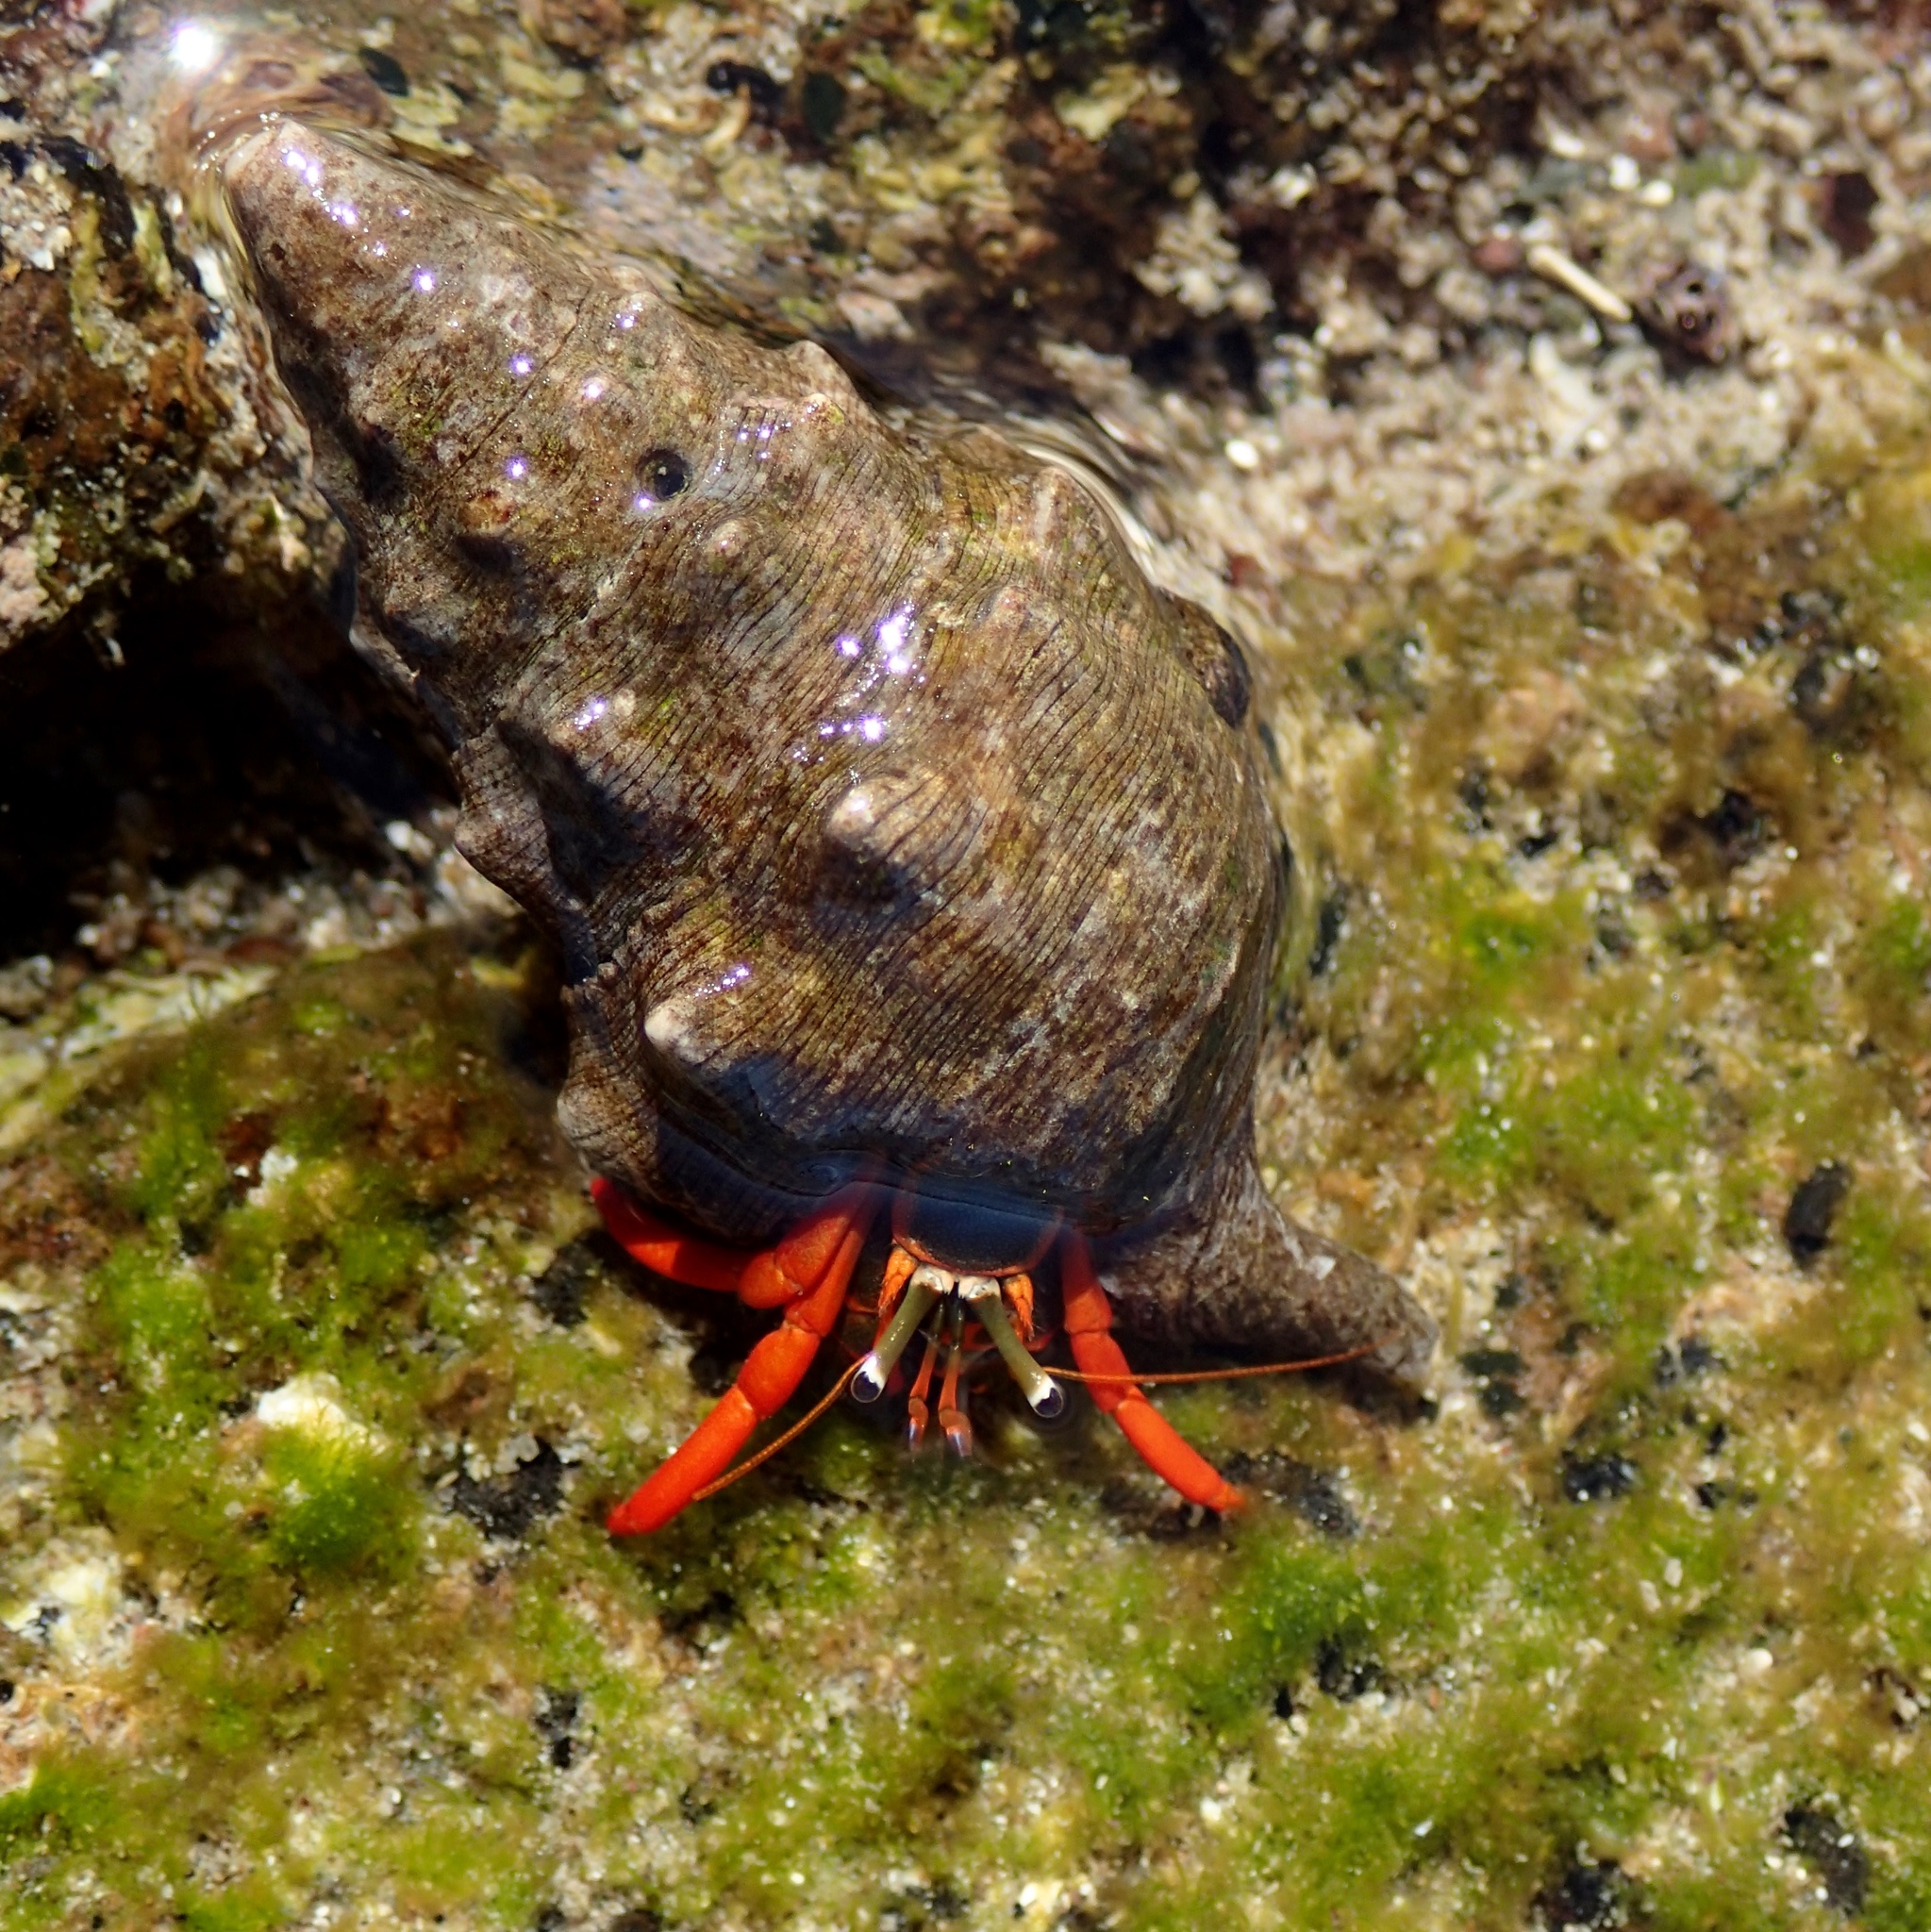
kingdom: Animalia
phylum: Arthropoda
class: Malacostraca
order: Decapoda
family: Diogenidae
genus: Calcinus
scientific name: Calcinus californiensis
